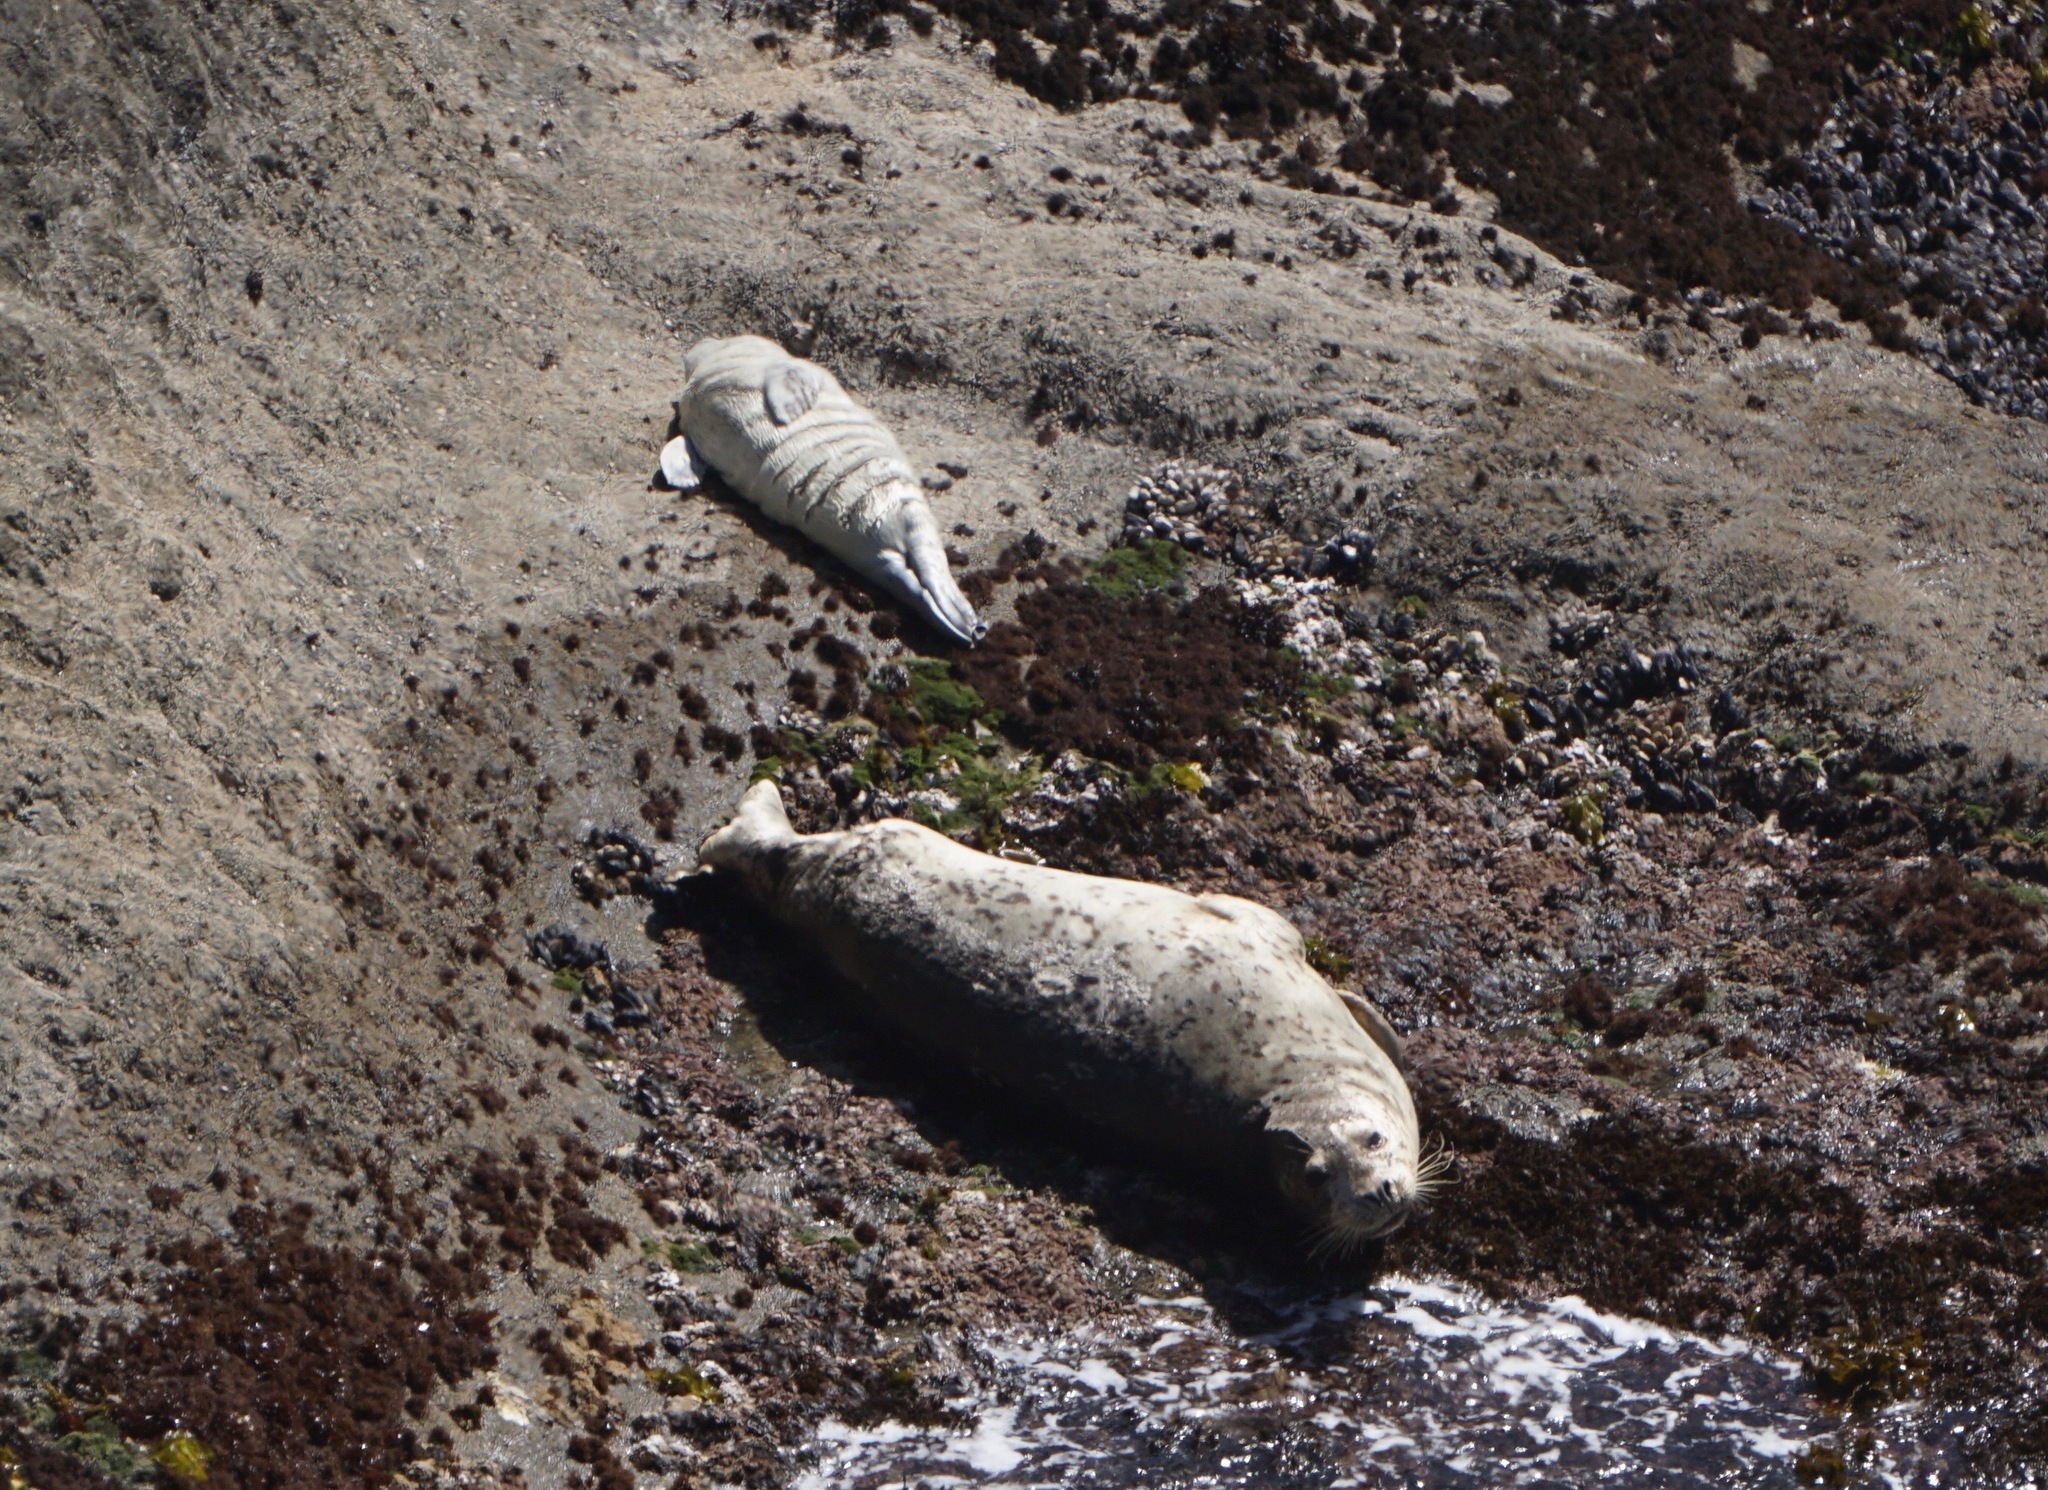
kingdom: Animalia
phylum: Chordata
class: Mammalia
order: Carnivora
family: Phocidae
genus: Phoca
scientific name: Phoca vitulina
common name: Harbor seal
